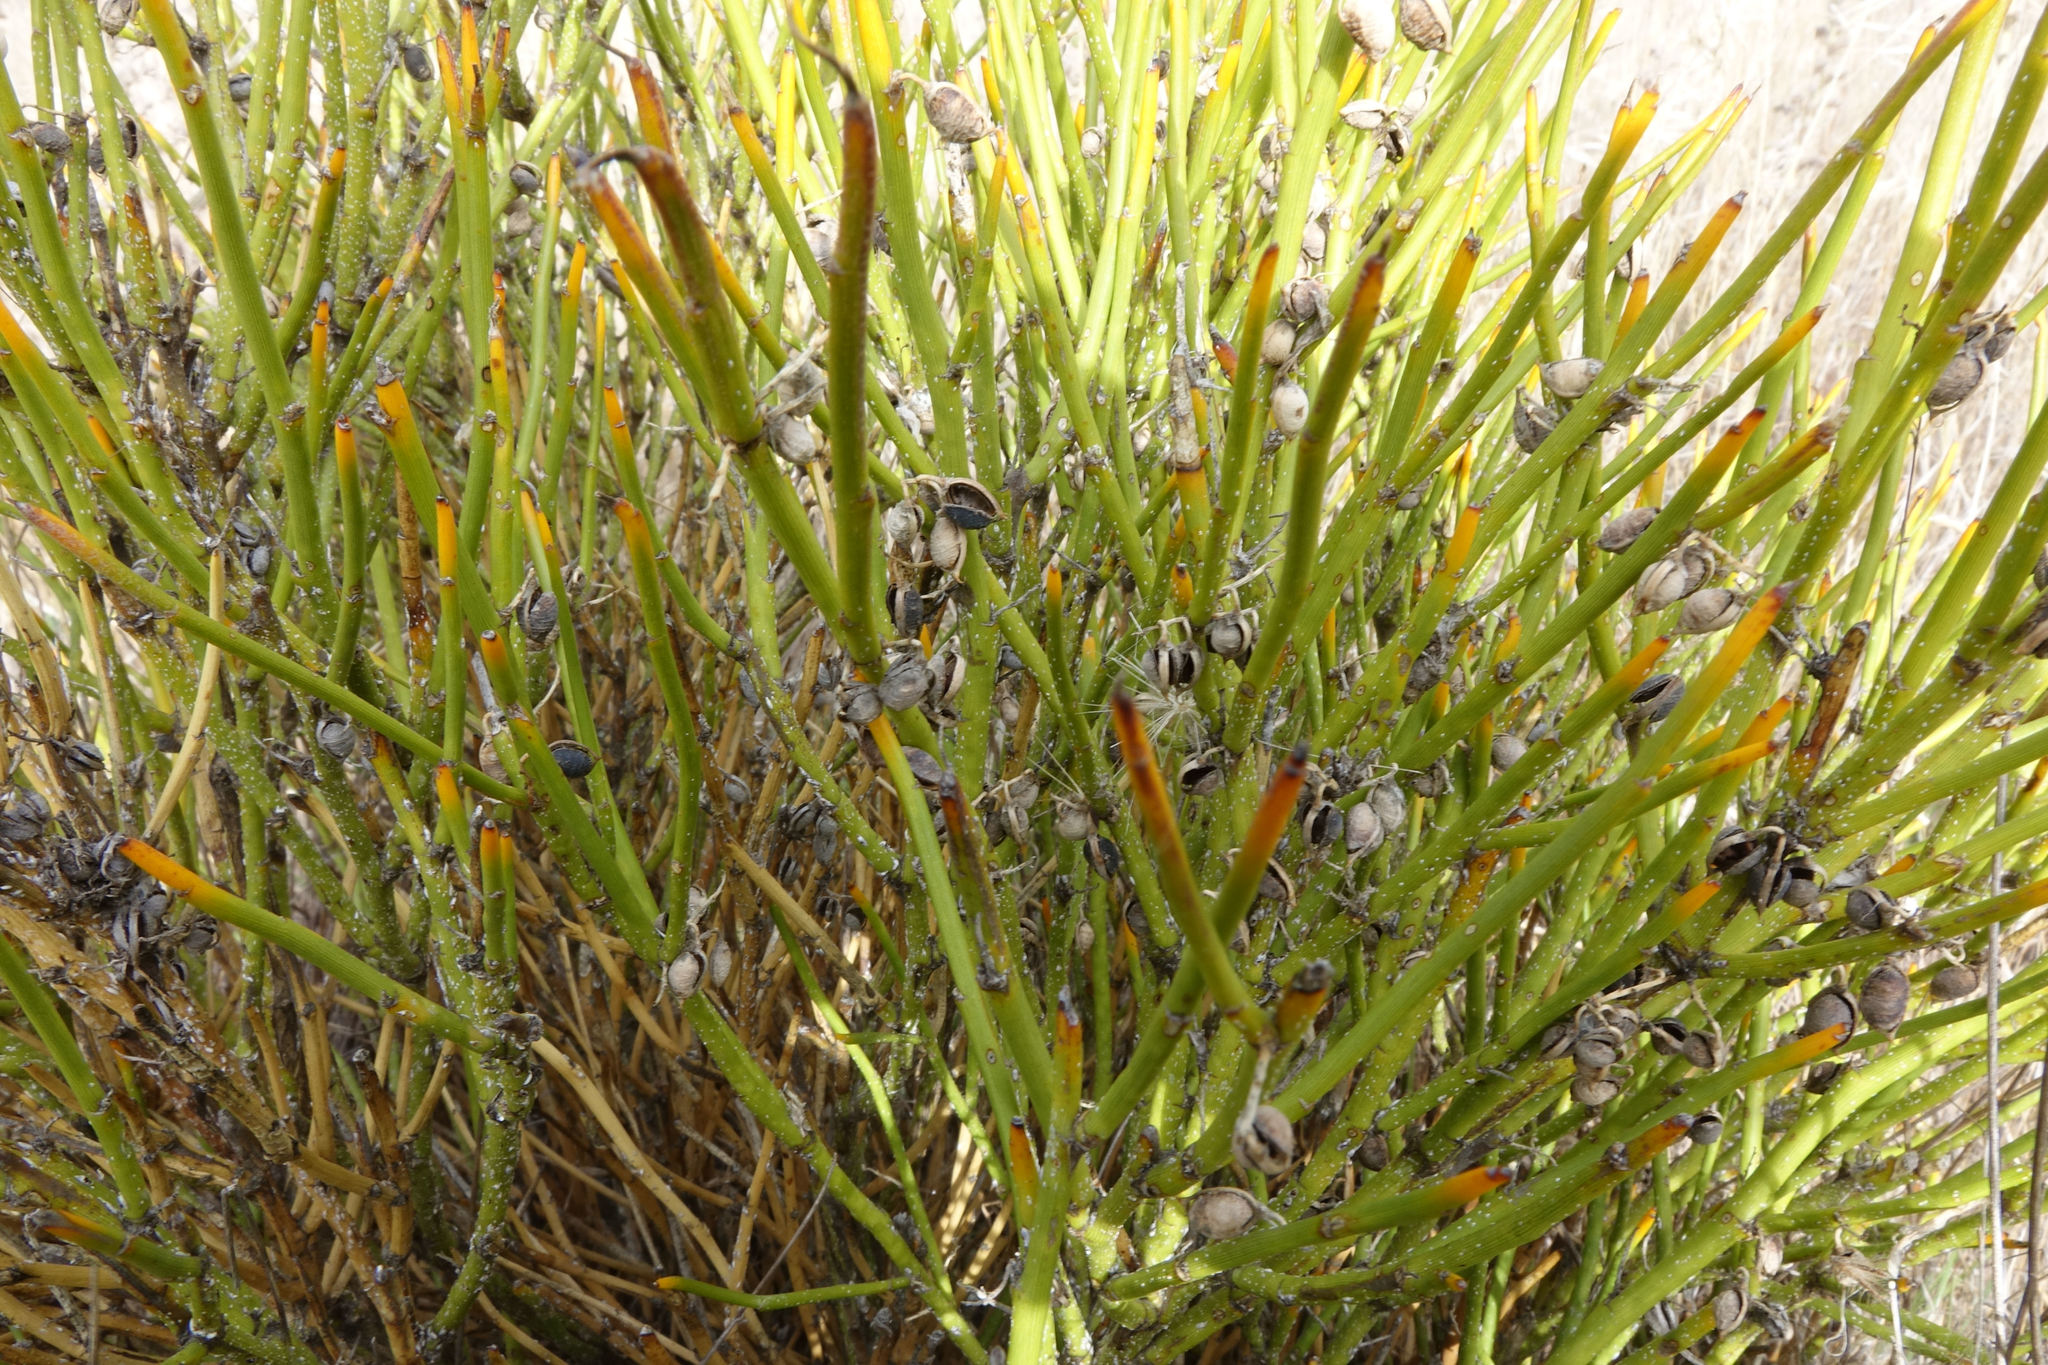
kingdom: Plantae
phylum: Tracheophyta
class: Magnoliopsida
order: Fabales
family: Fabaceae
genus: Carmichaelia
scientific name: Carmichaelia petriei
